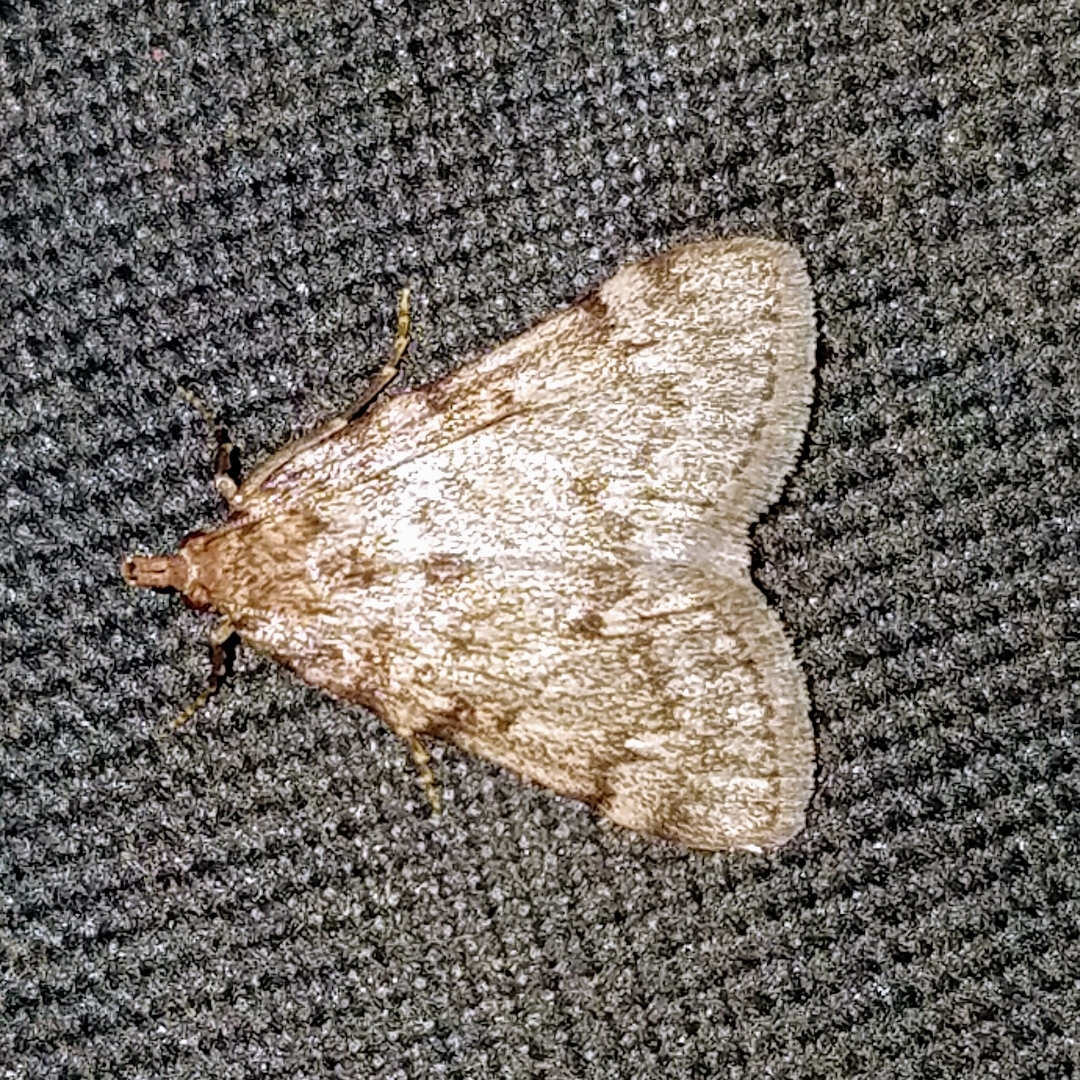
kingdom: Animalia
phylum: Arthropoda
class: Insecta
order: Lepidoptera
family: Pyralidae
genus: Aglossa
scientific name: Aglossa pinguinalis
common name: Large tabby
